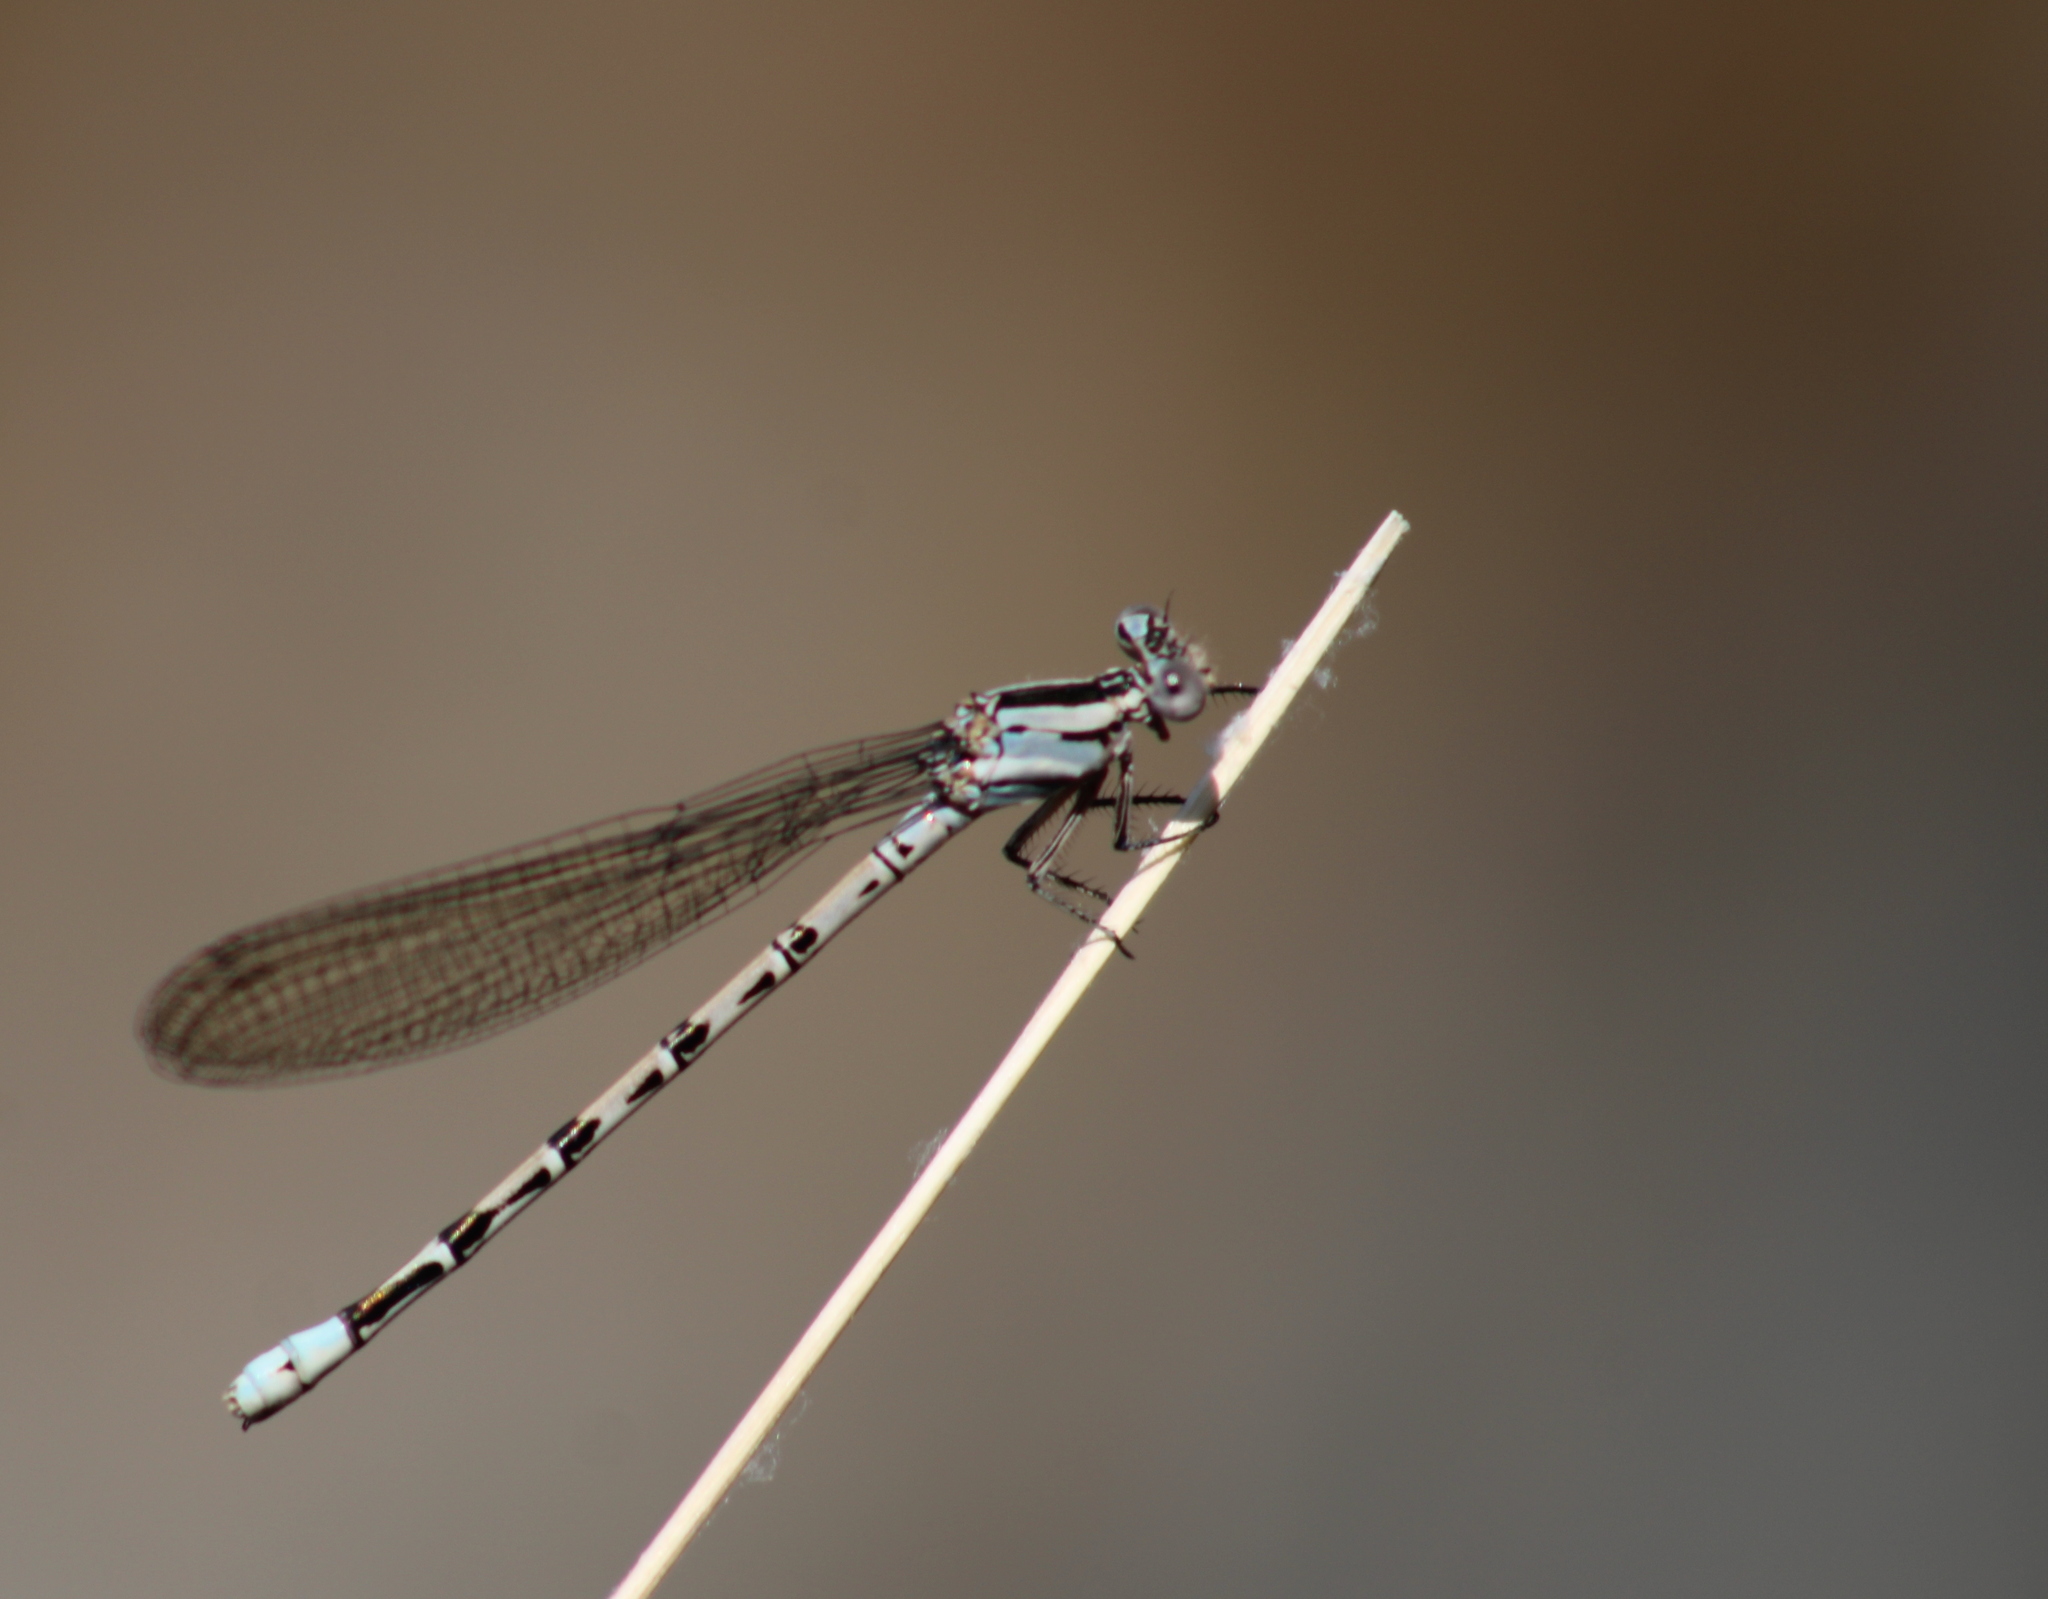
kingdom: Animalia
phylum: Arthropoda
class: Insecta
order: Odonata
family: Coenagrionidae
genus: Argia
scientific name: Argia vivida
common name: Vivid dancer
